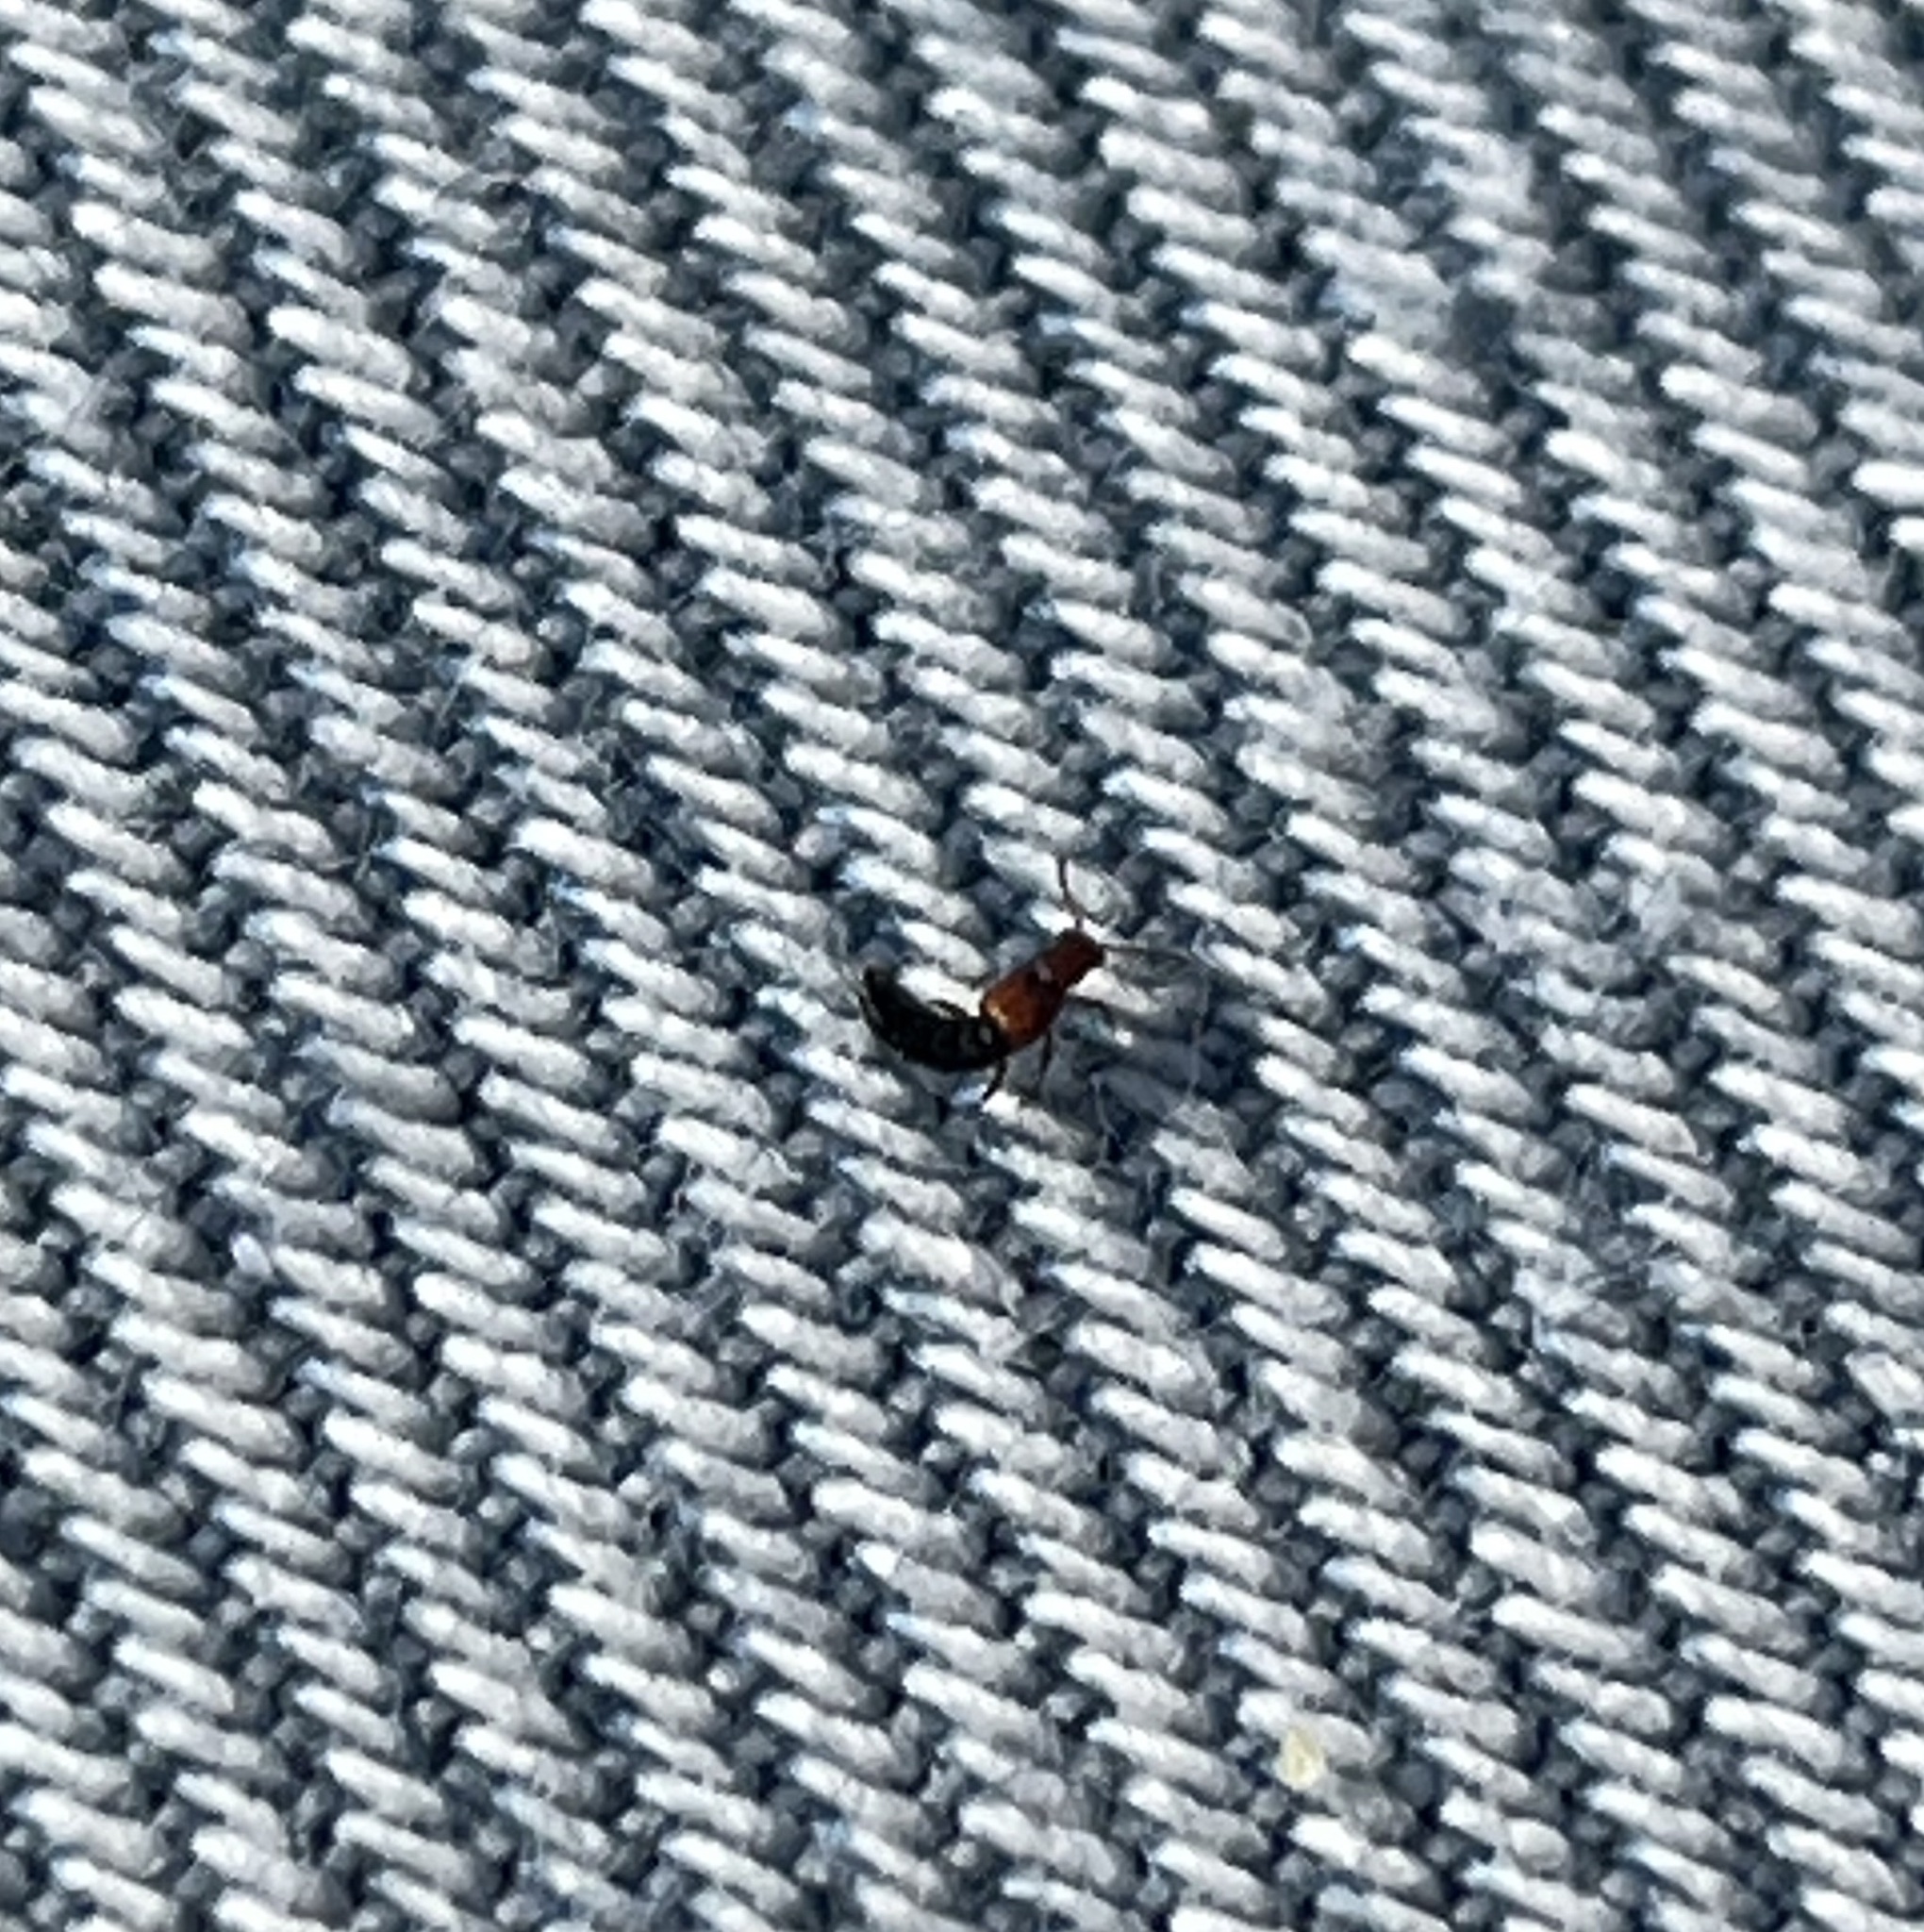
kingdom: Animalia
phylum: Arthropoda
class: Insecta
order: Coleoptera
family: Staphylinidae
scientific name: Staphylinidae
